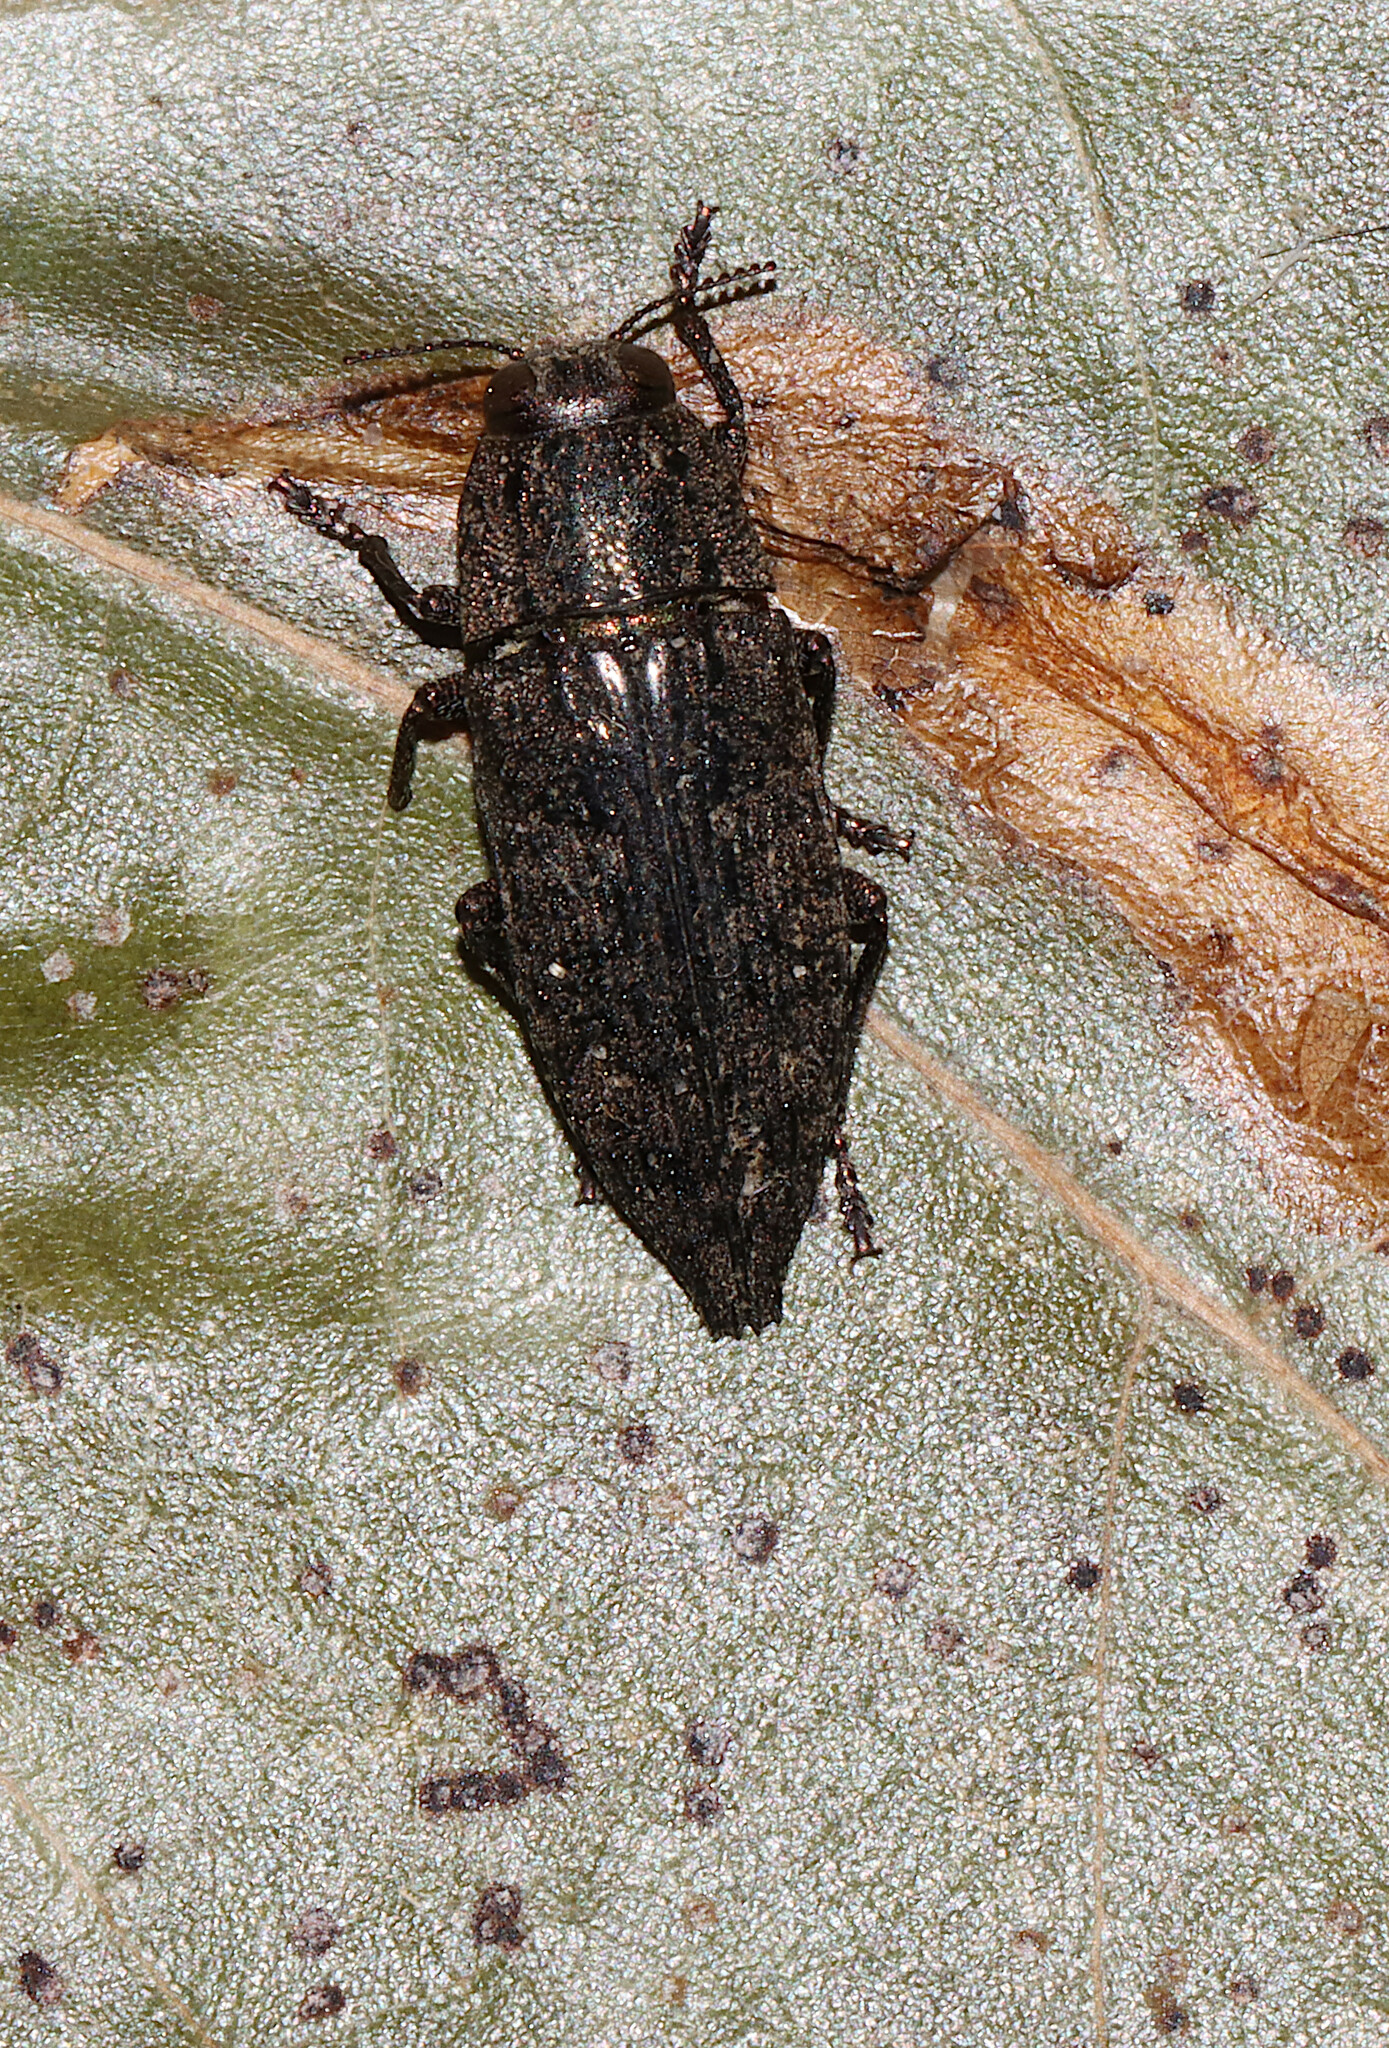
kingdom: Animalia
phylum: Arthropoda
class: Insecta
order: Coleoptera
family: Buprestidae
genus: Dicerca
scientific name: Dicerca obscura
